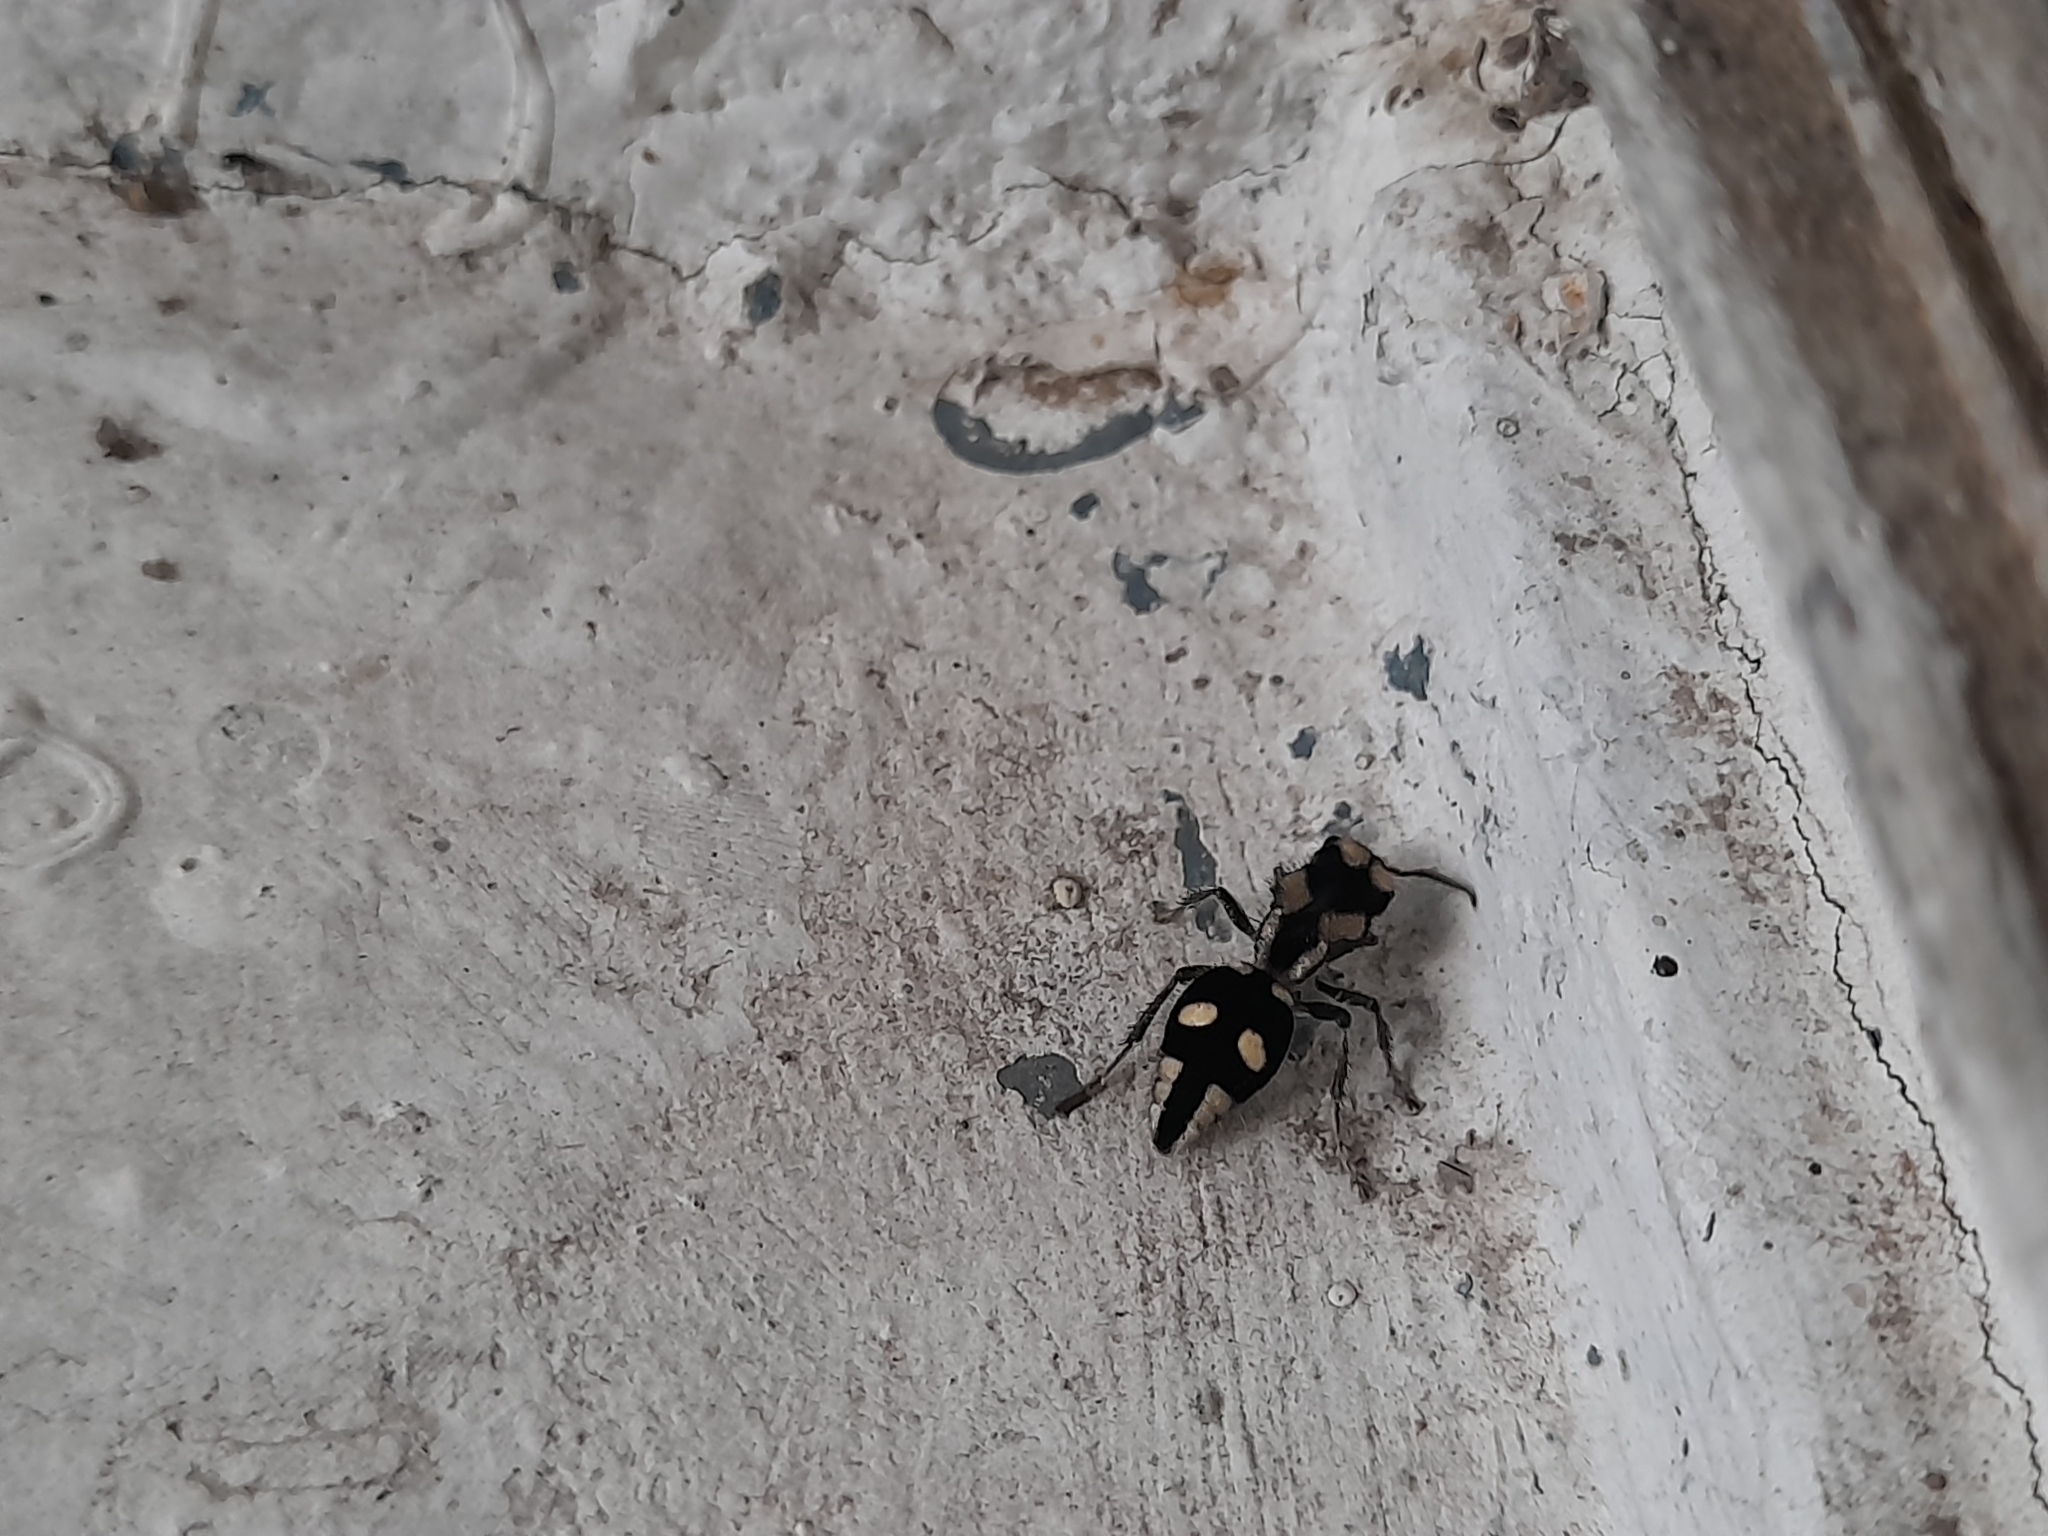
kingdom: Animalia
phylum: Arthropoda
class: Insecta
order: Hymenoptera
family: Mutillidae
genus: Hoplomutilla
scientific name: Hoplomutilla
